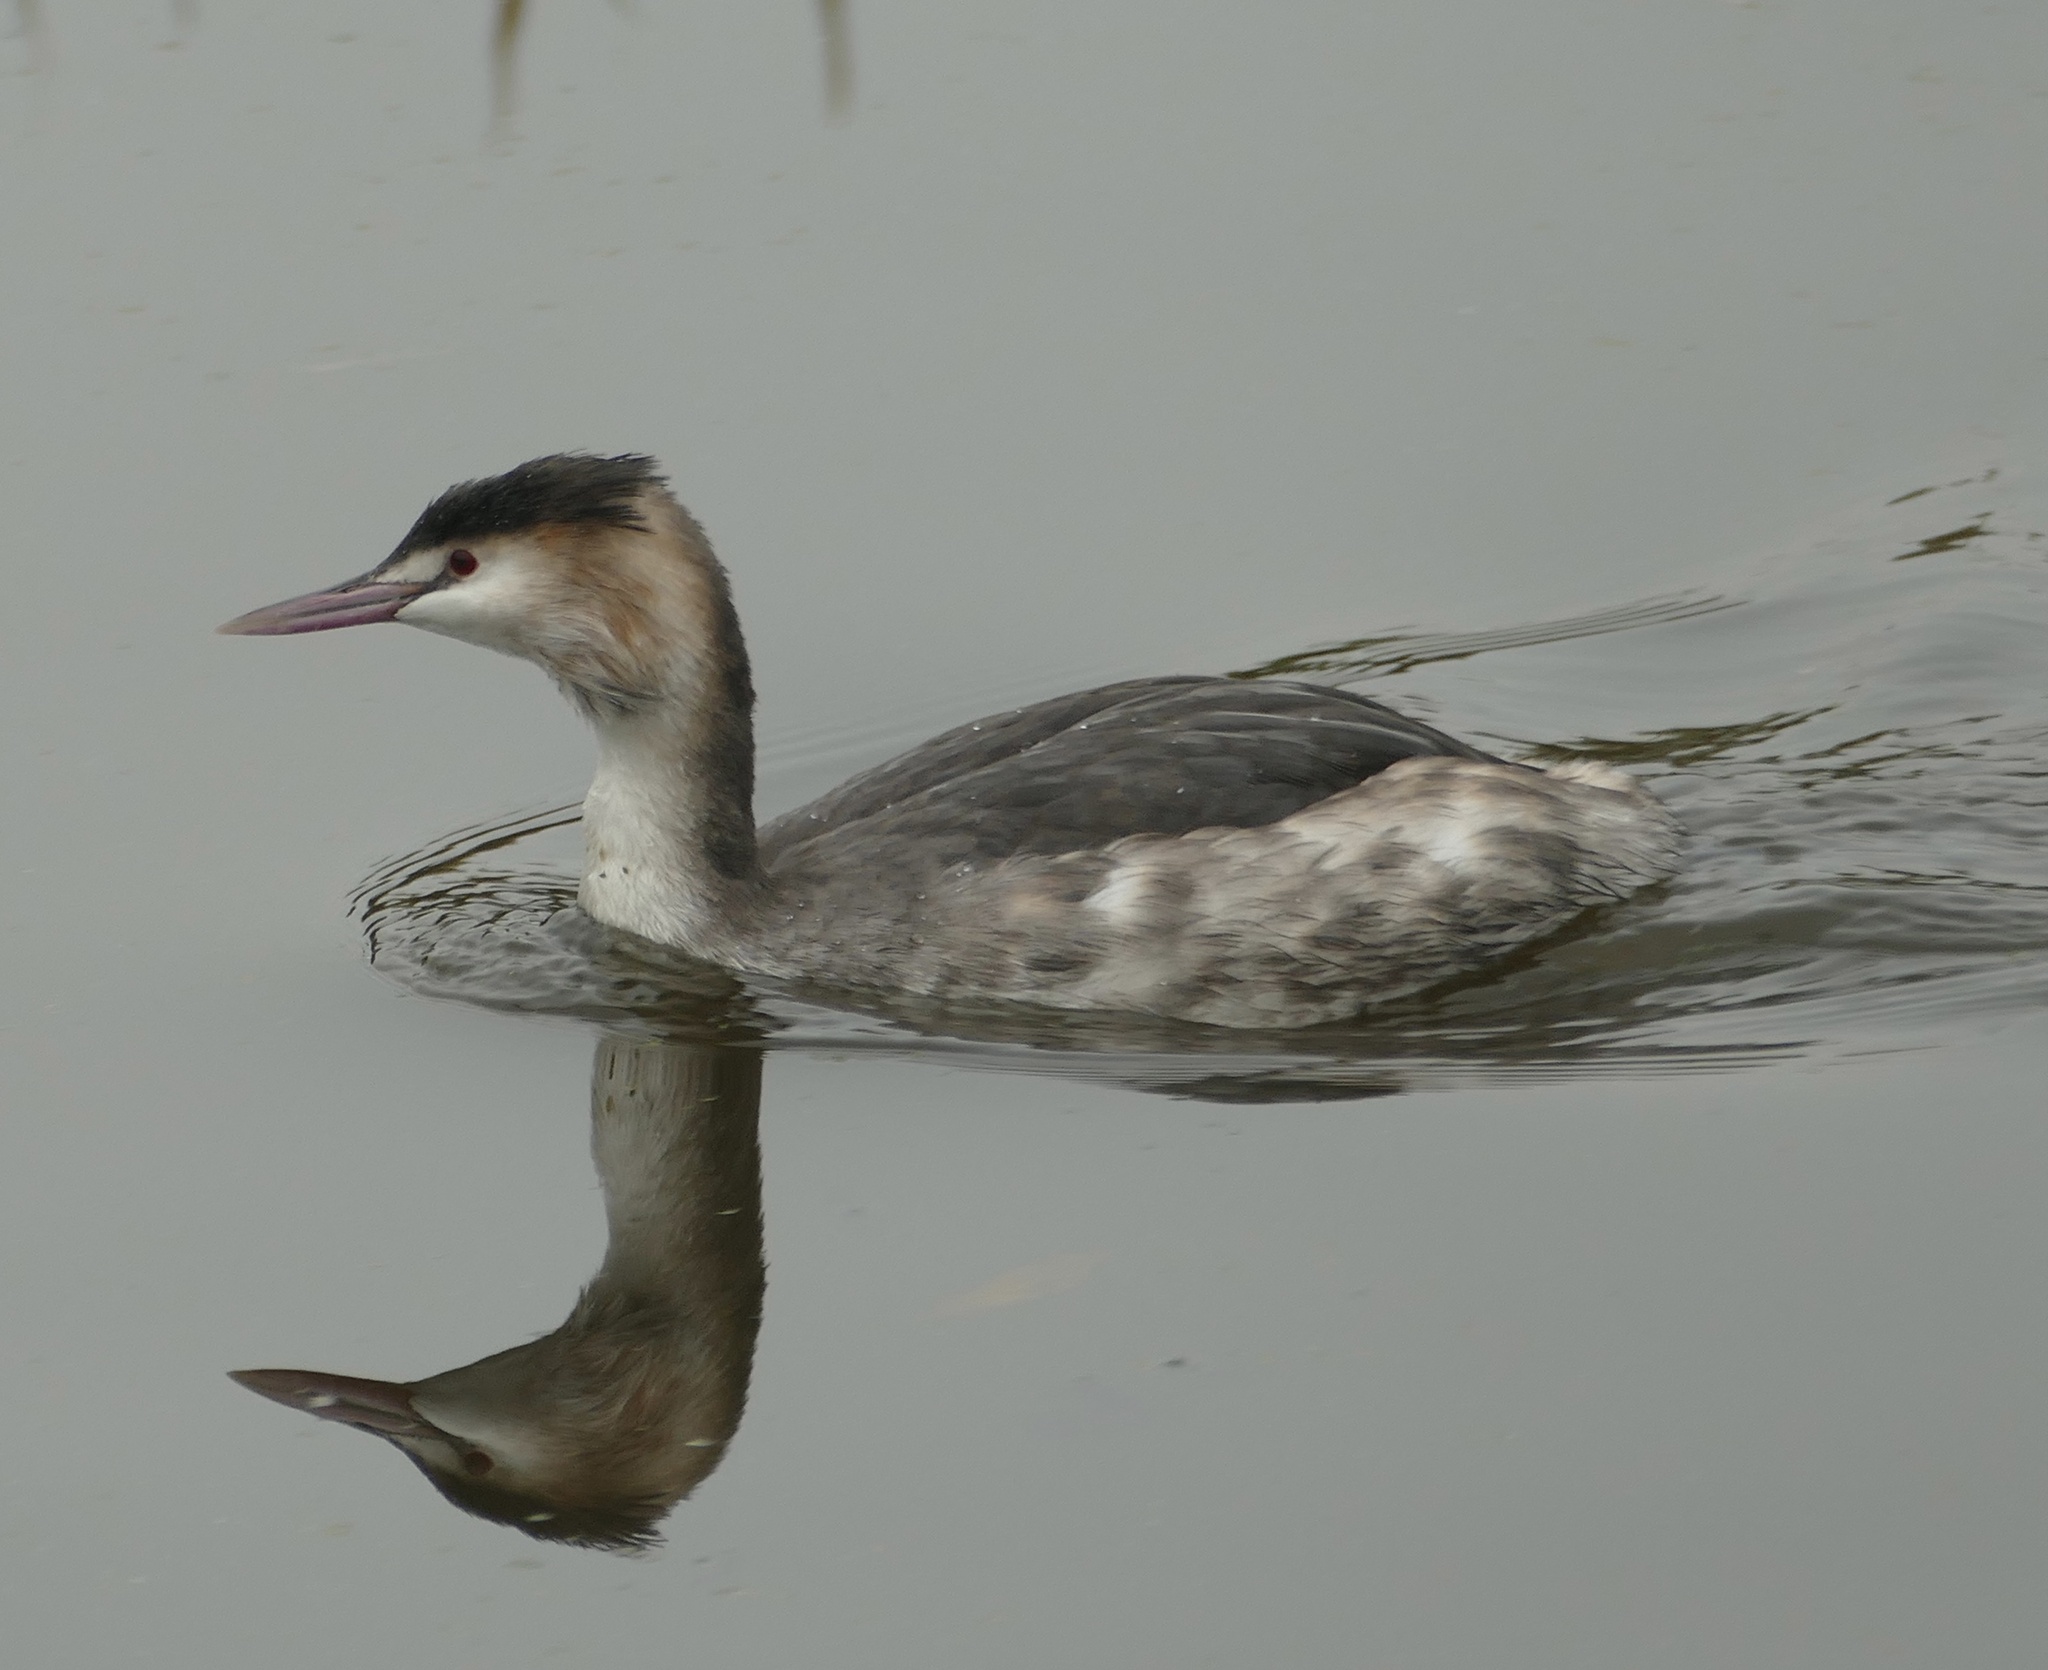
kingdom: Animalia
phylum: Chordata
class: Aves
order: Podicipediformes
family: Podicipedidae
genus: Podiceps
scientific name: Podiceps cristatus
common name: Great crested grebe
